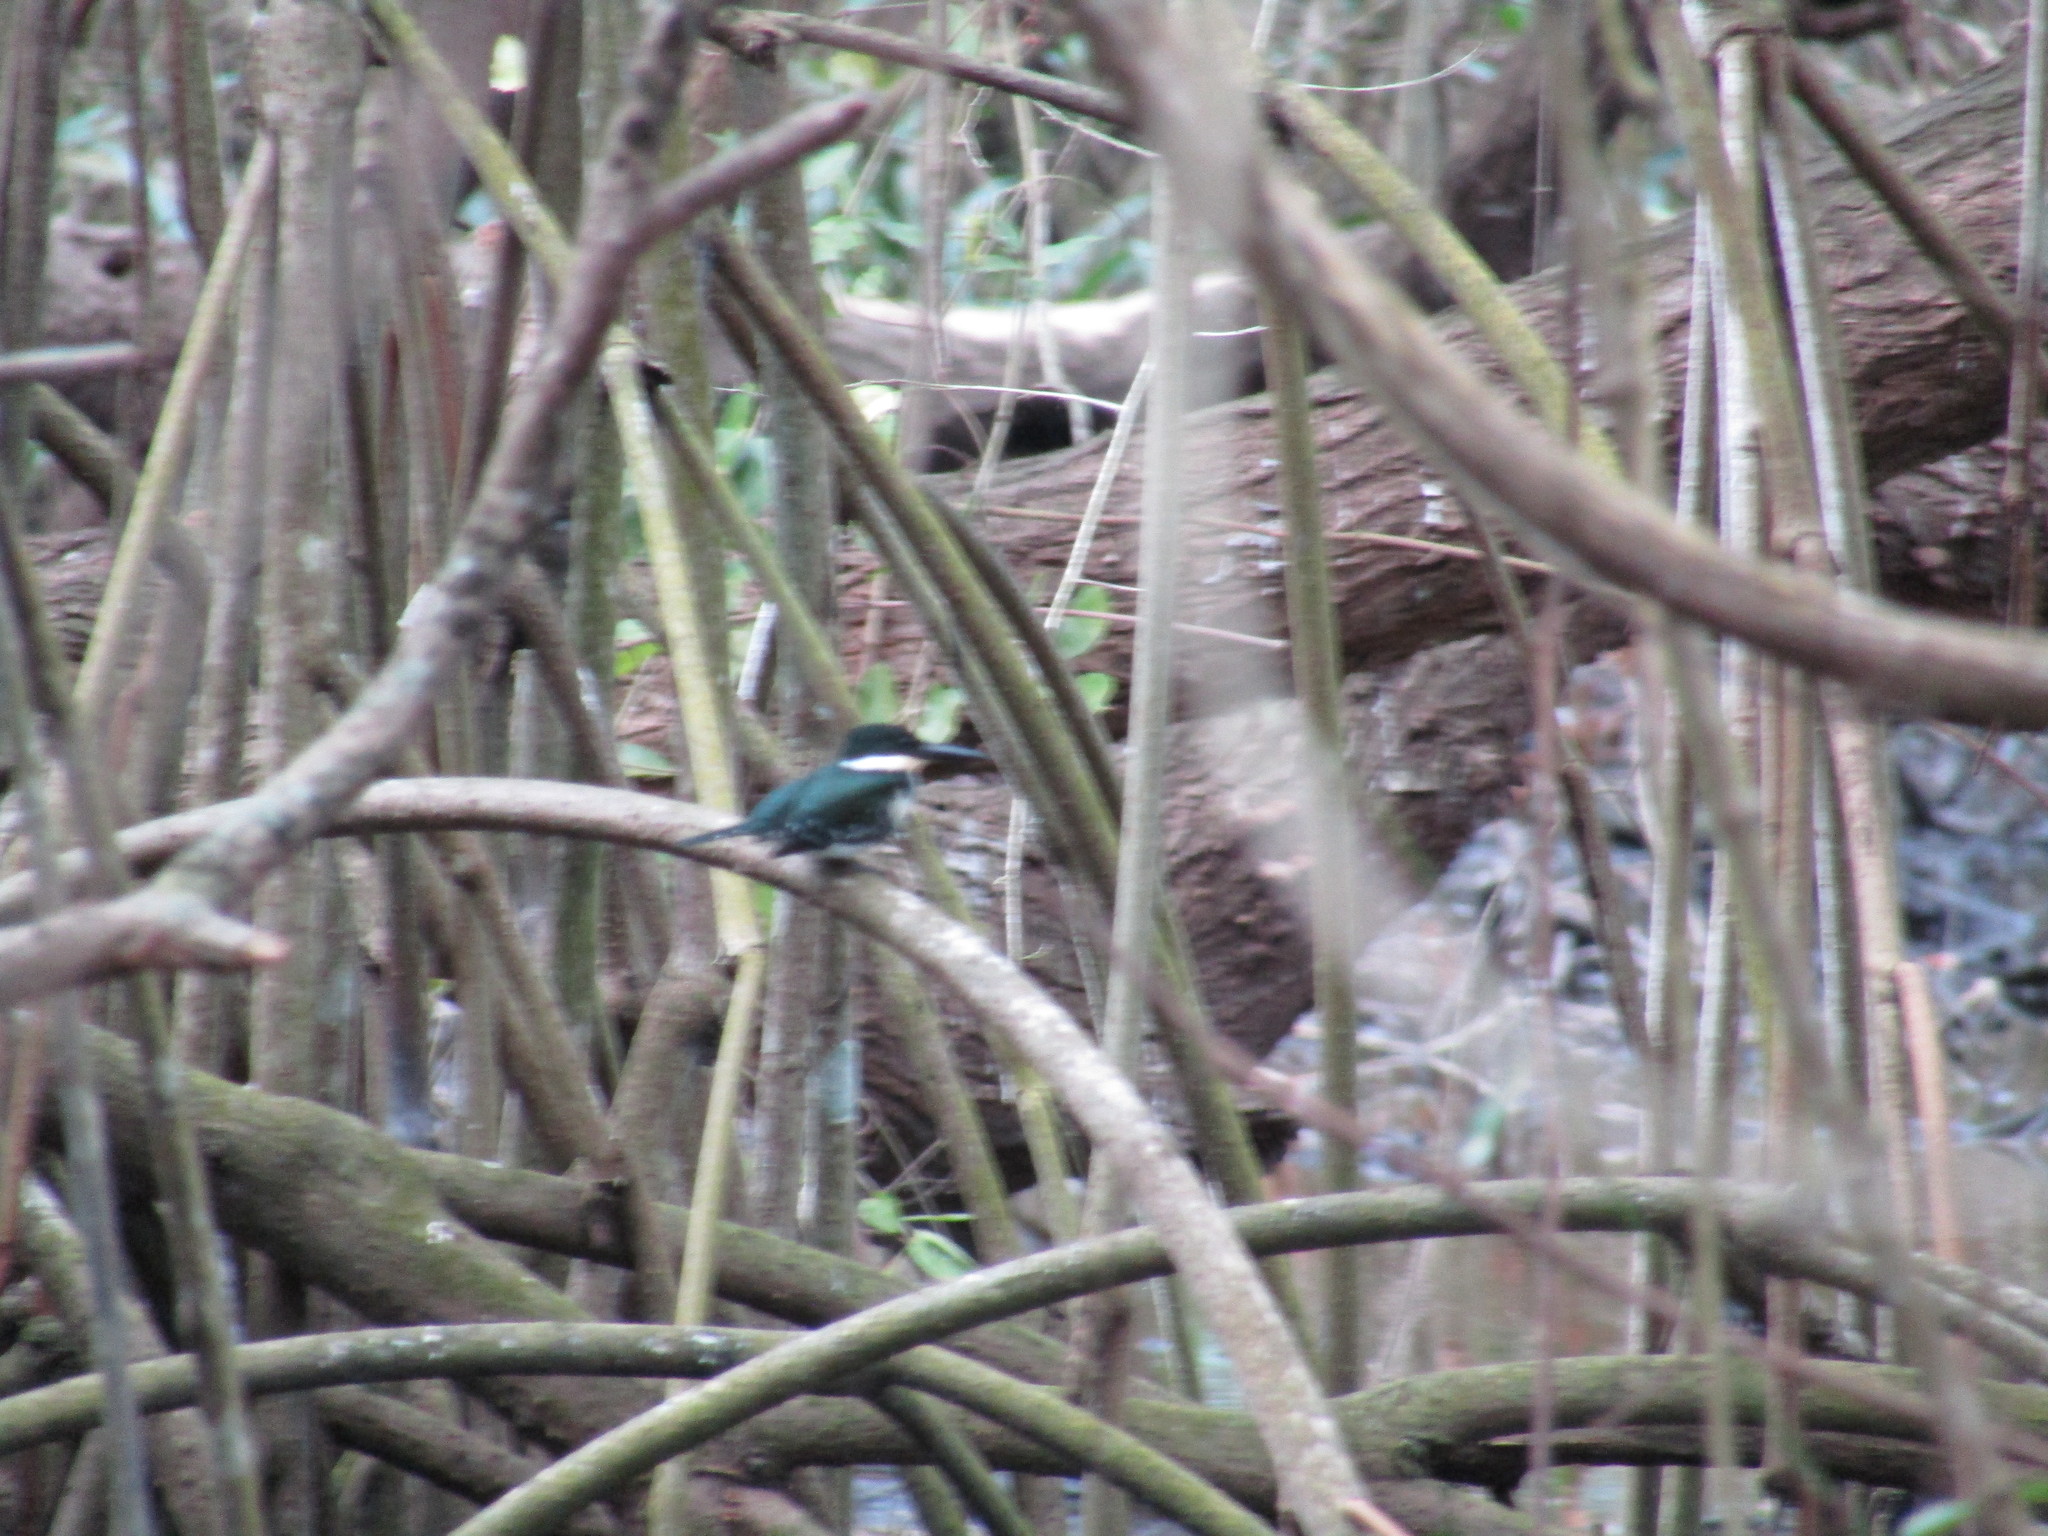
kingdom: Animalia
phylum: Chordata
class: Aves
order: Coraciiformes
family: Alcedinidae
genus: Chloroceryle
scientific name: Chloroceryle americana
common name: Green kingfisher
